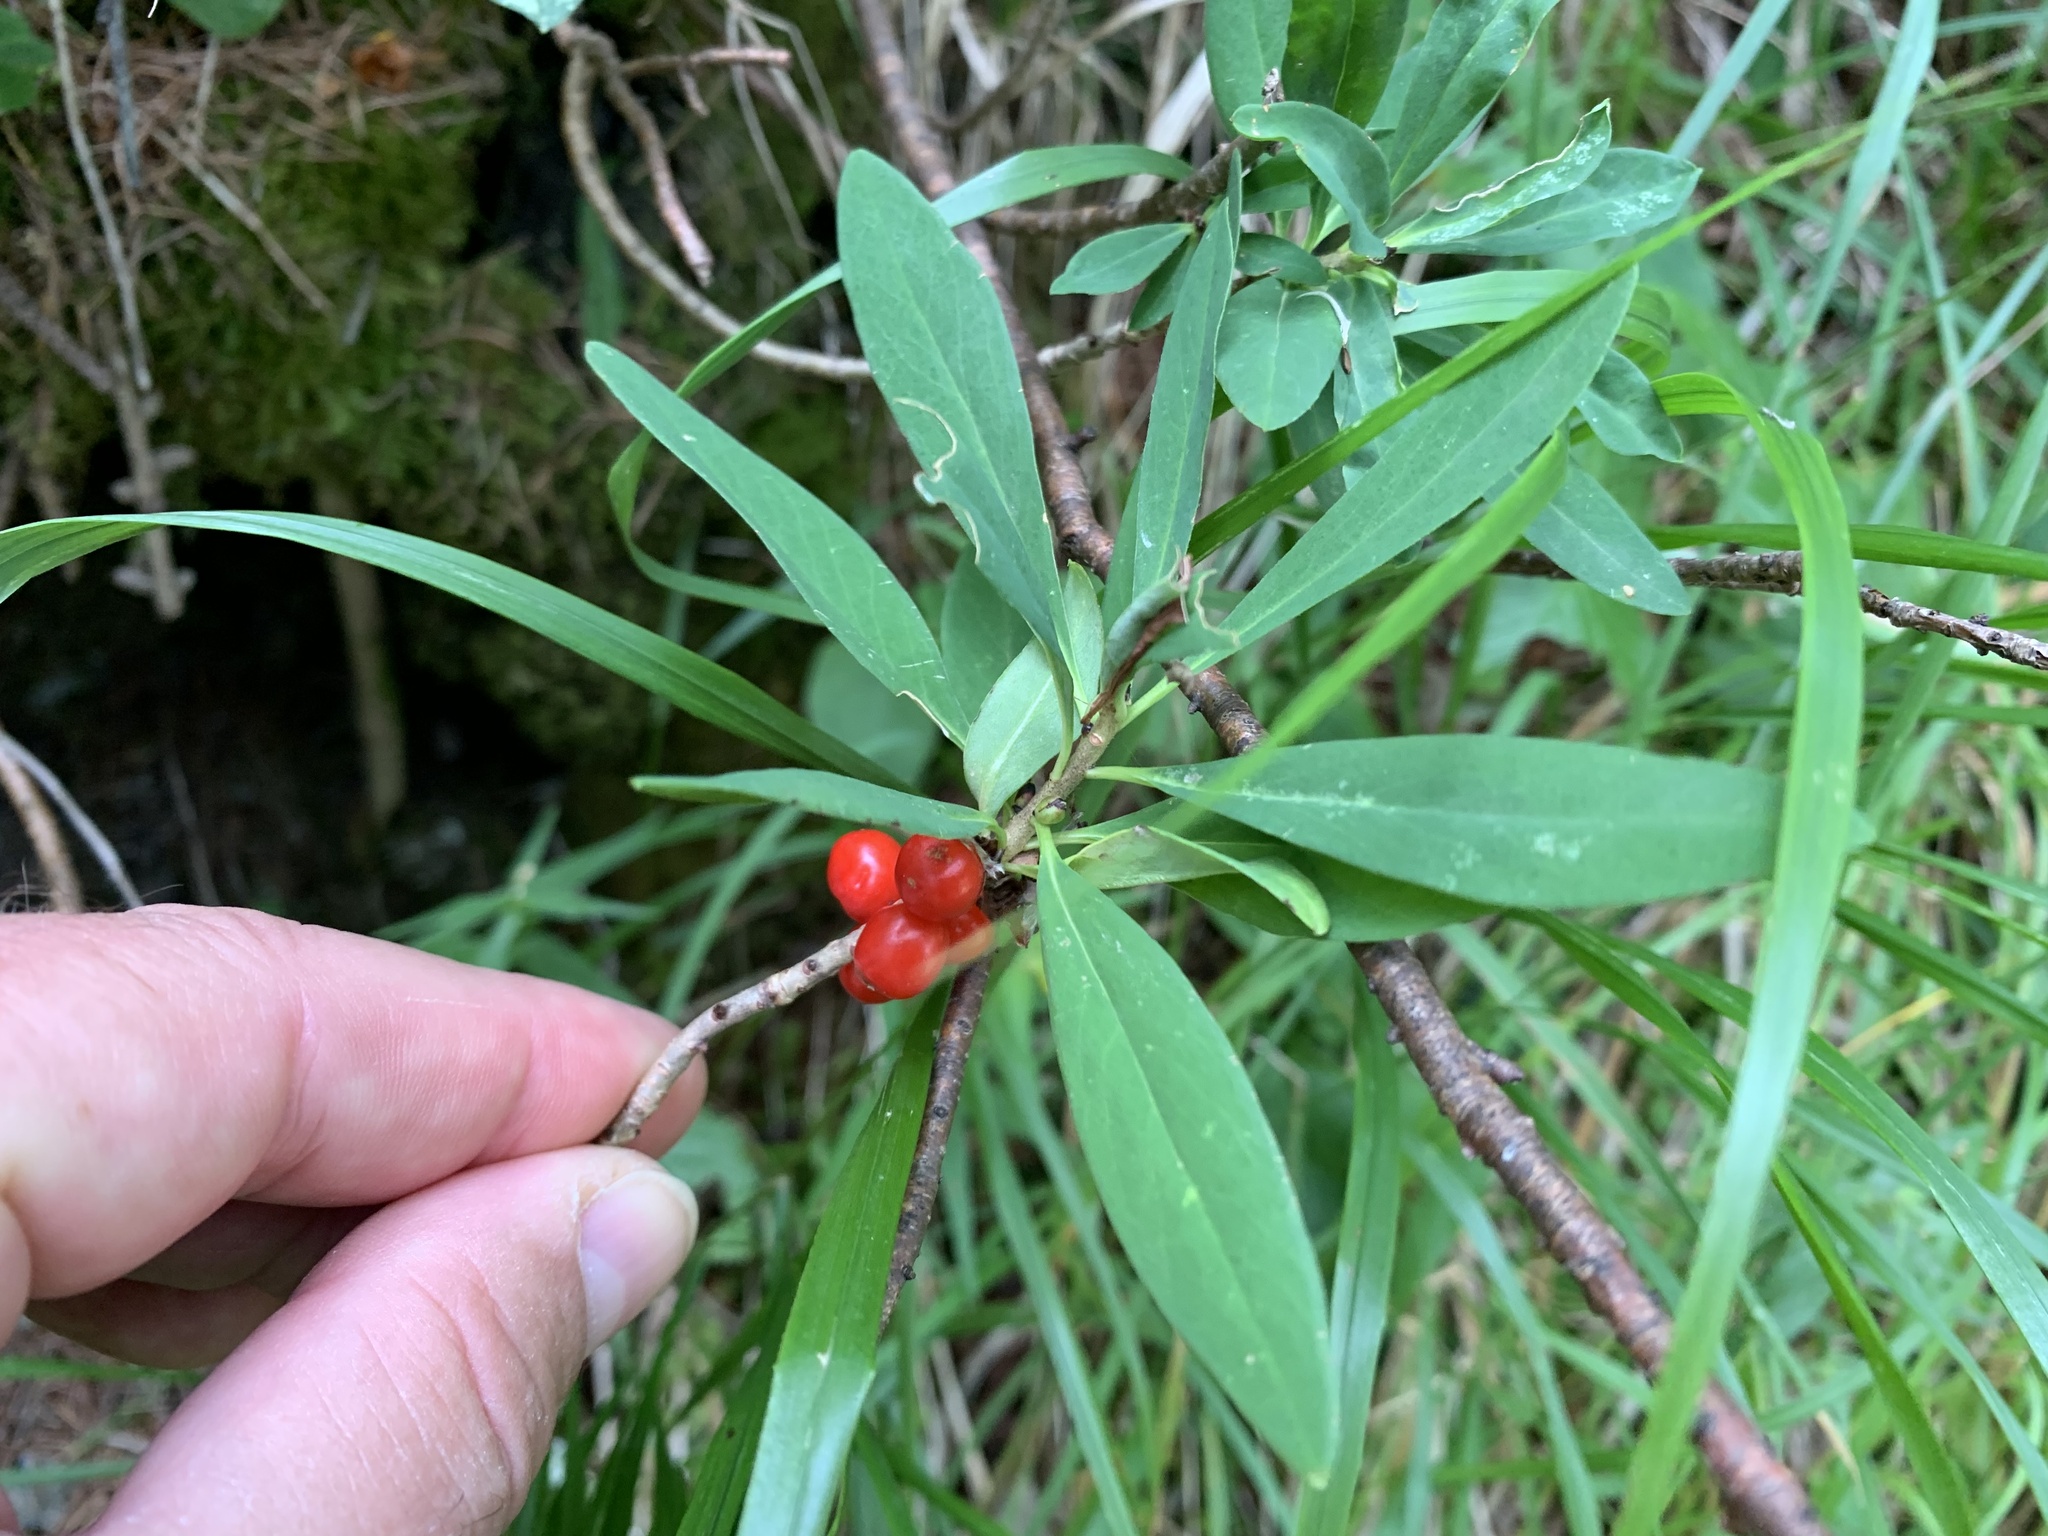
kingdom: Plantae
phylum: Tracheophyta
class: Magnoliopsida
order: Malvales
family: Thymelaeaceae
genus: Daphne
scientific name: Daphne mezereum
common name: Mezereon
